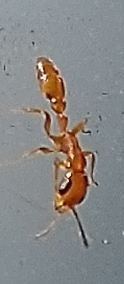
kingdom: Animalia
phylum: Arthropoda
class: Insecta
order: Hymenoptera
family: Formicidae
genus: Pseudomyrmex
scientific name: Pseudomyrmex
